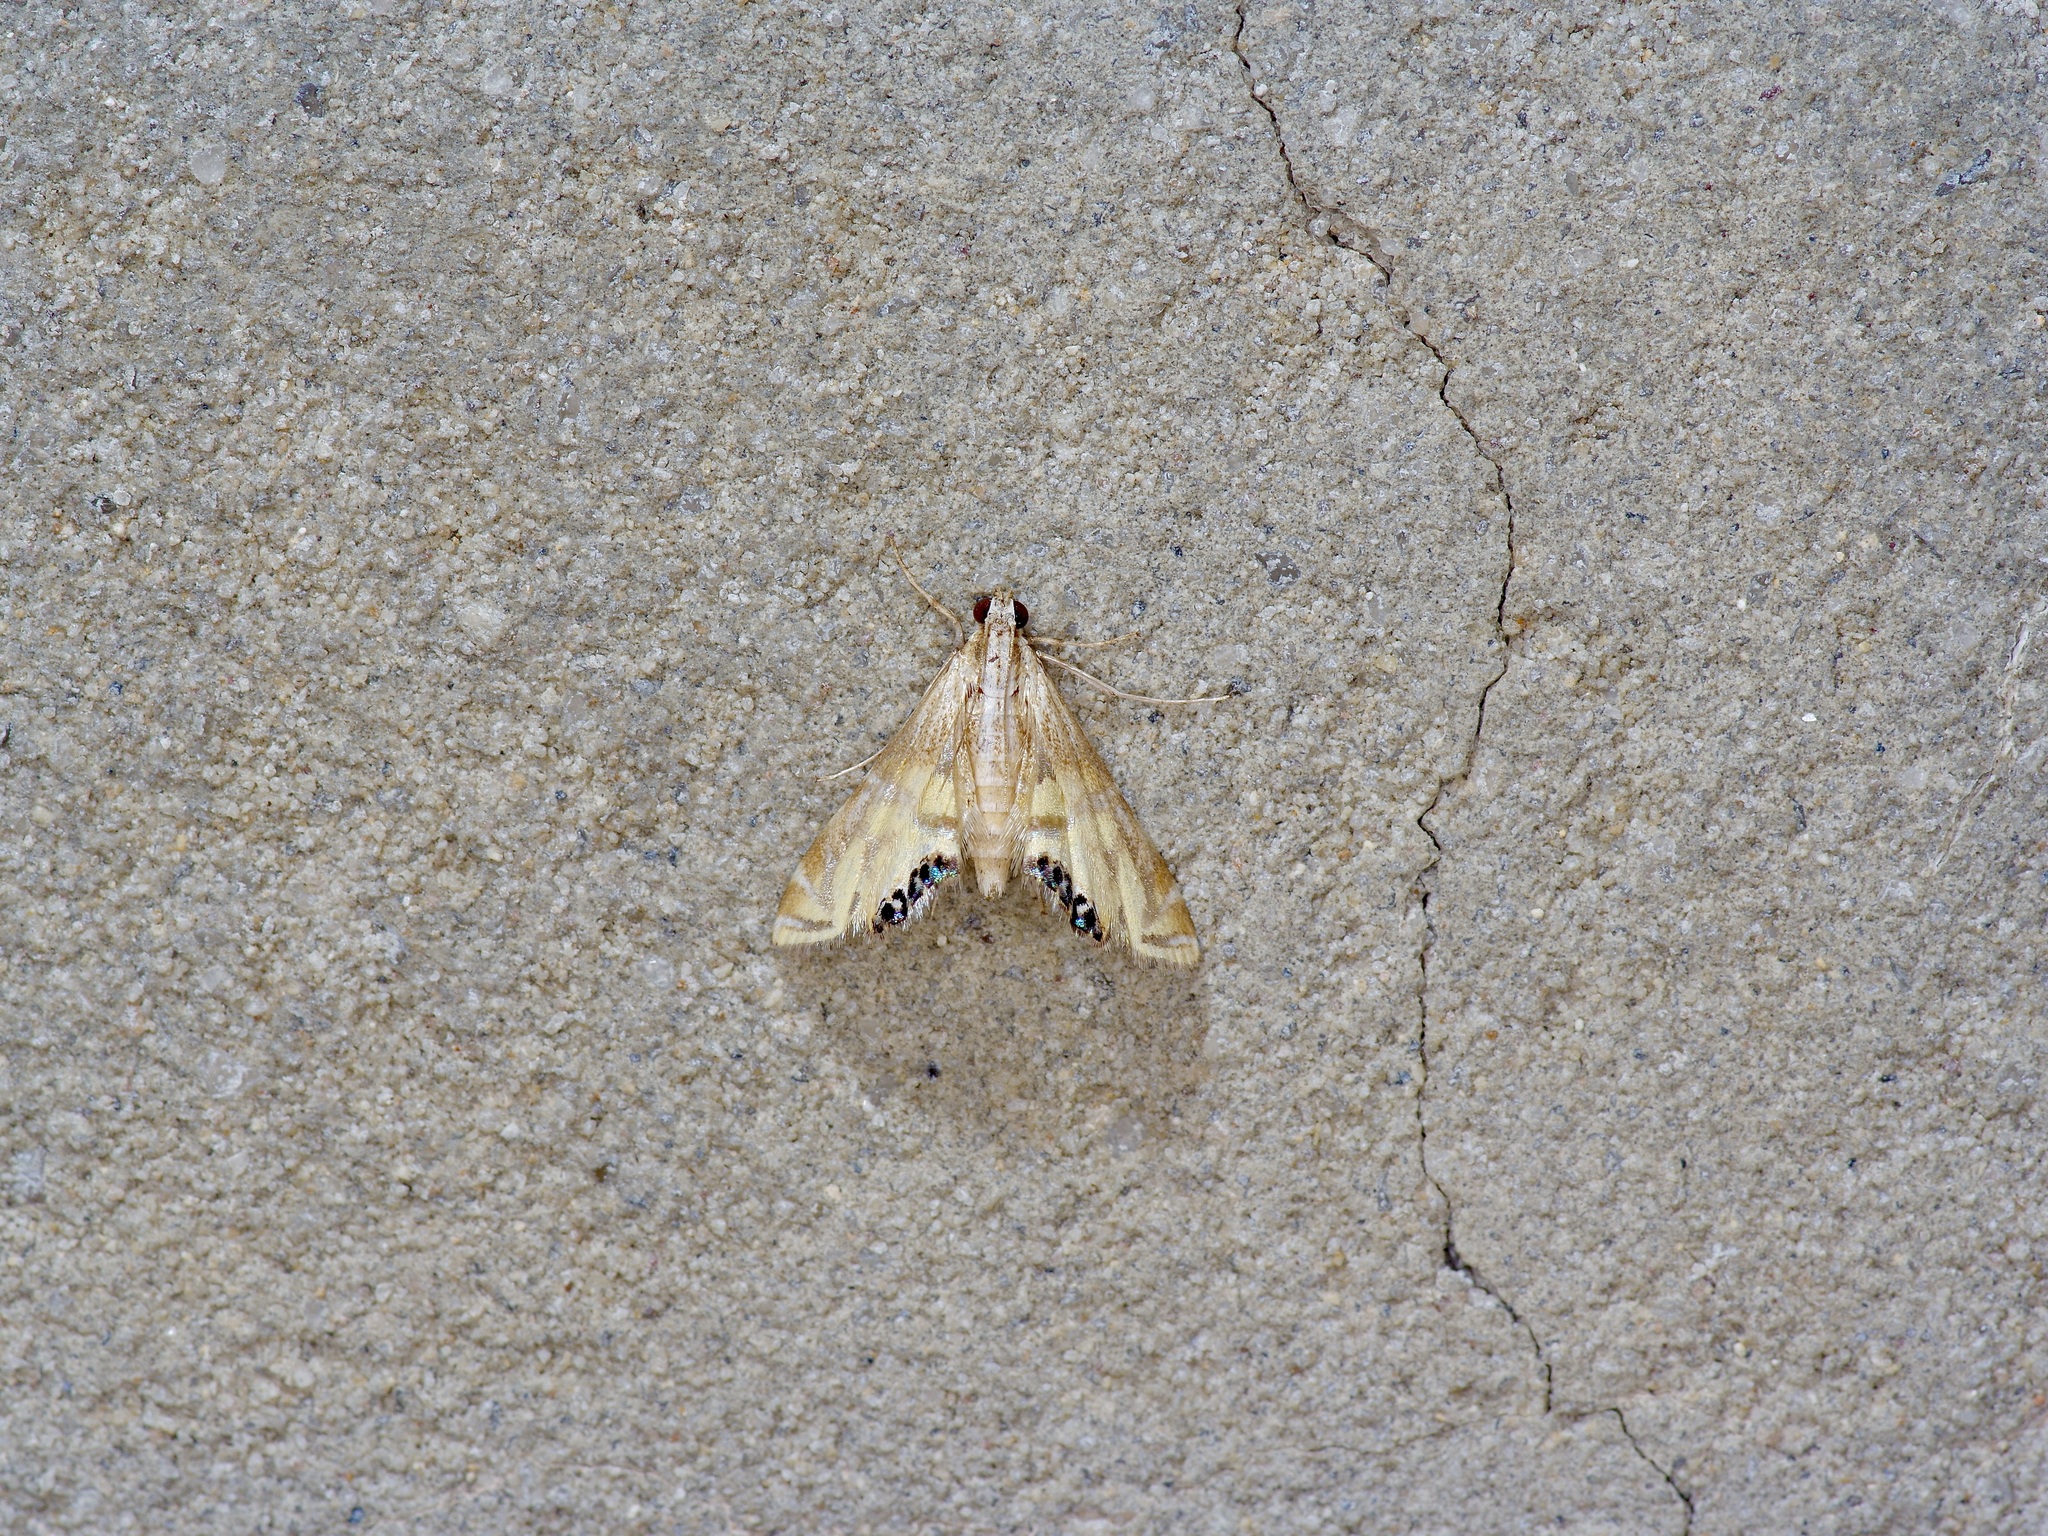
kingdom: Animalia
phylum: Arthropoda
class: Insecta
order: Lepidoptera
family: Crambidae
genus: Petrophila
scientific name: Petrophila daemonalis
